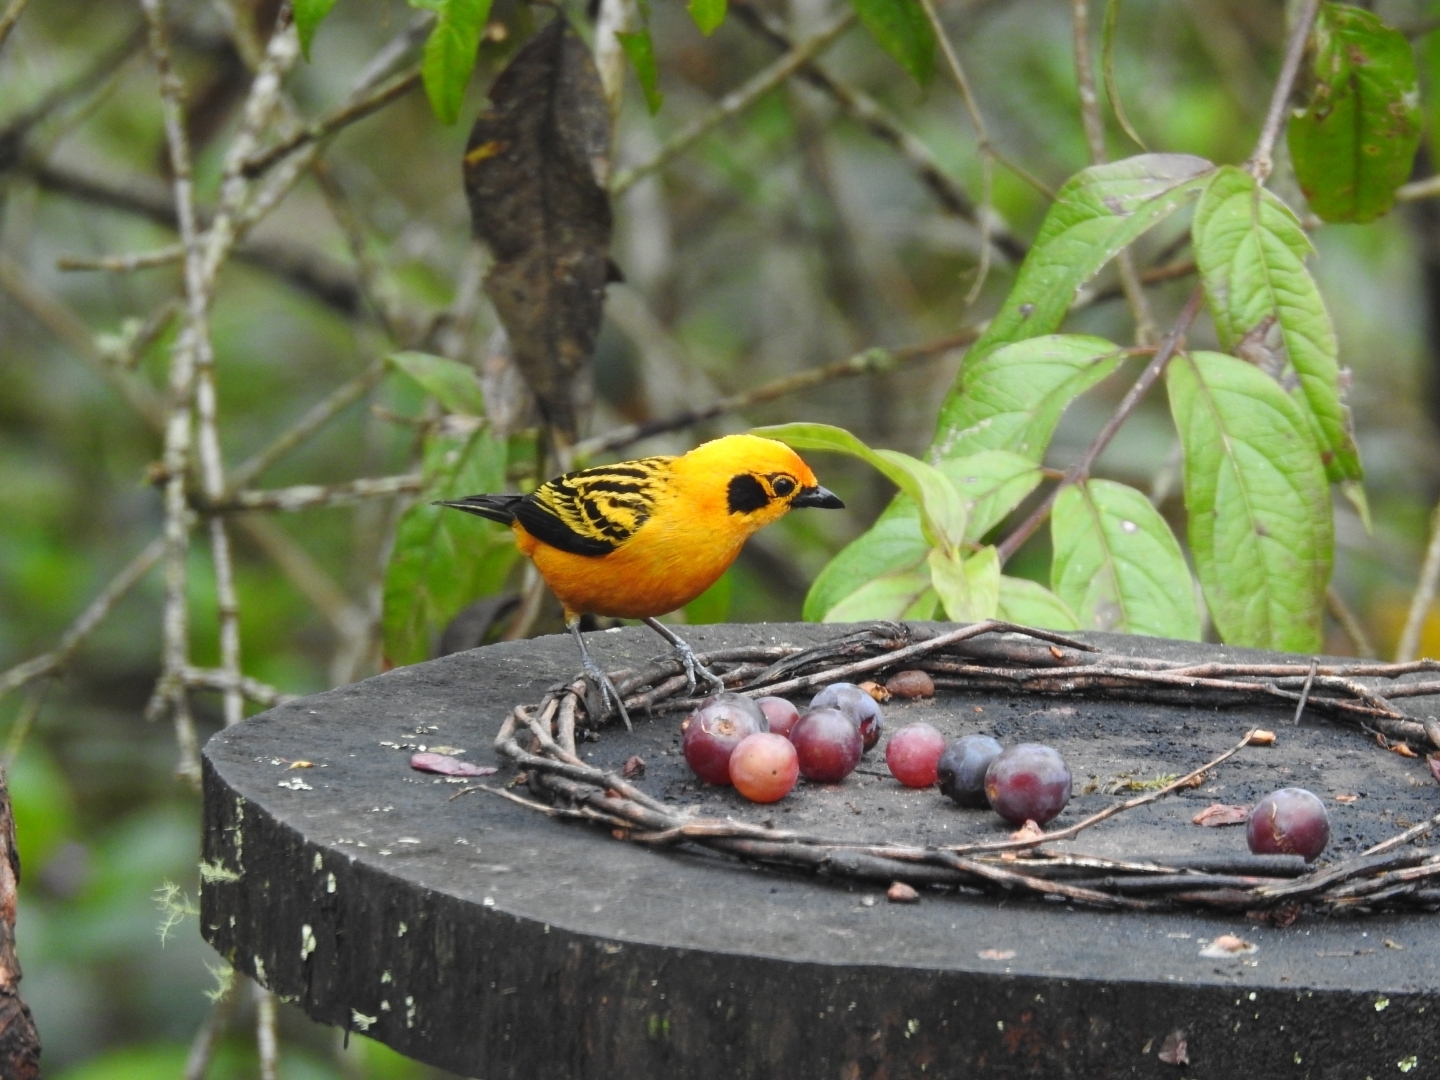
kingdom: Animalia
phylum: Chordata
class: Aves
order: Passeriformes
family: Thraupidae
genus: Tangara
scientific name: Tangara arthus
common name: Golden tanager
